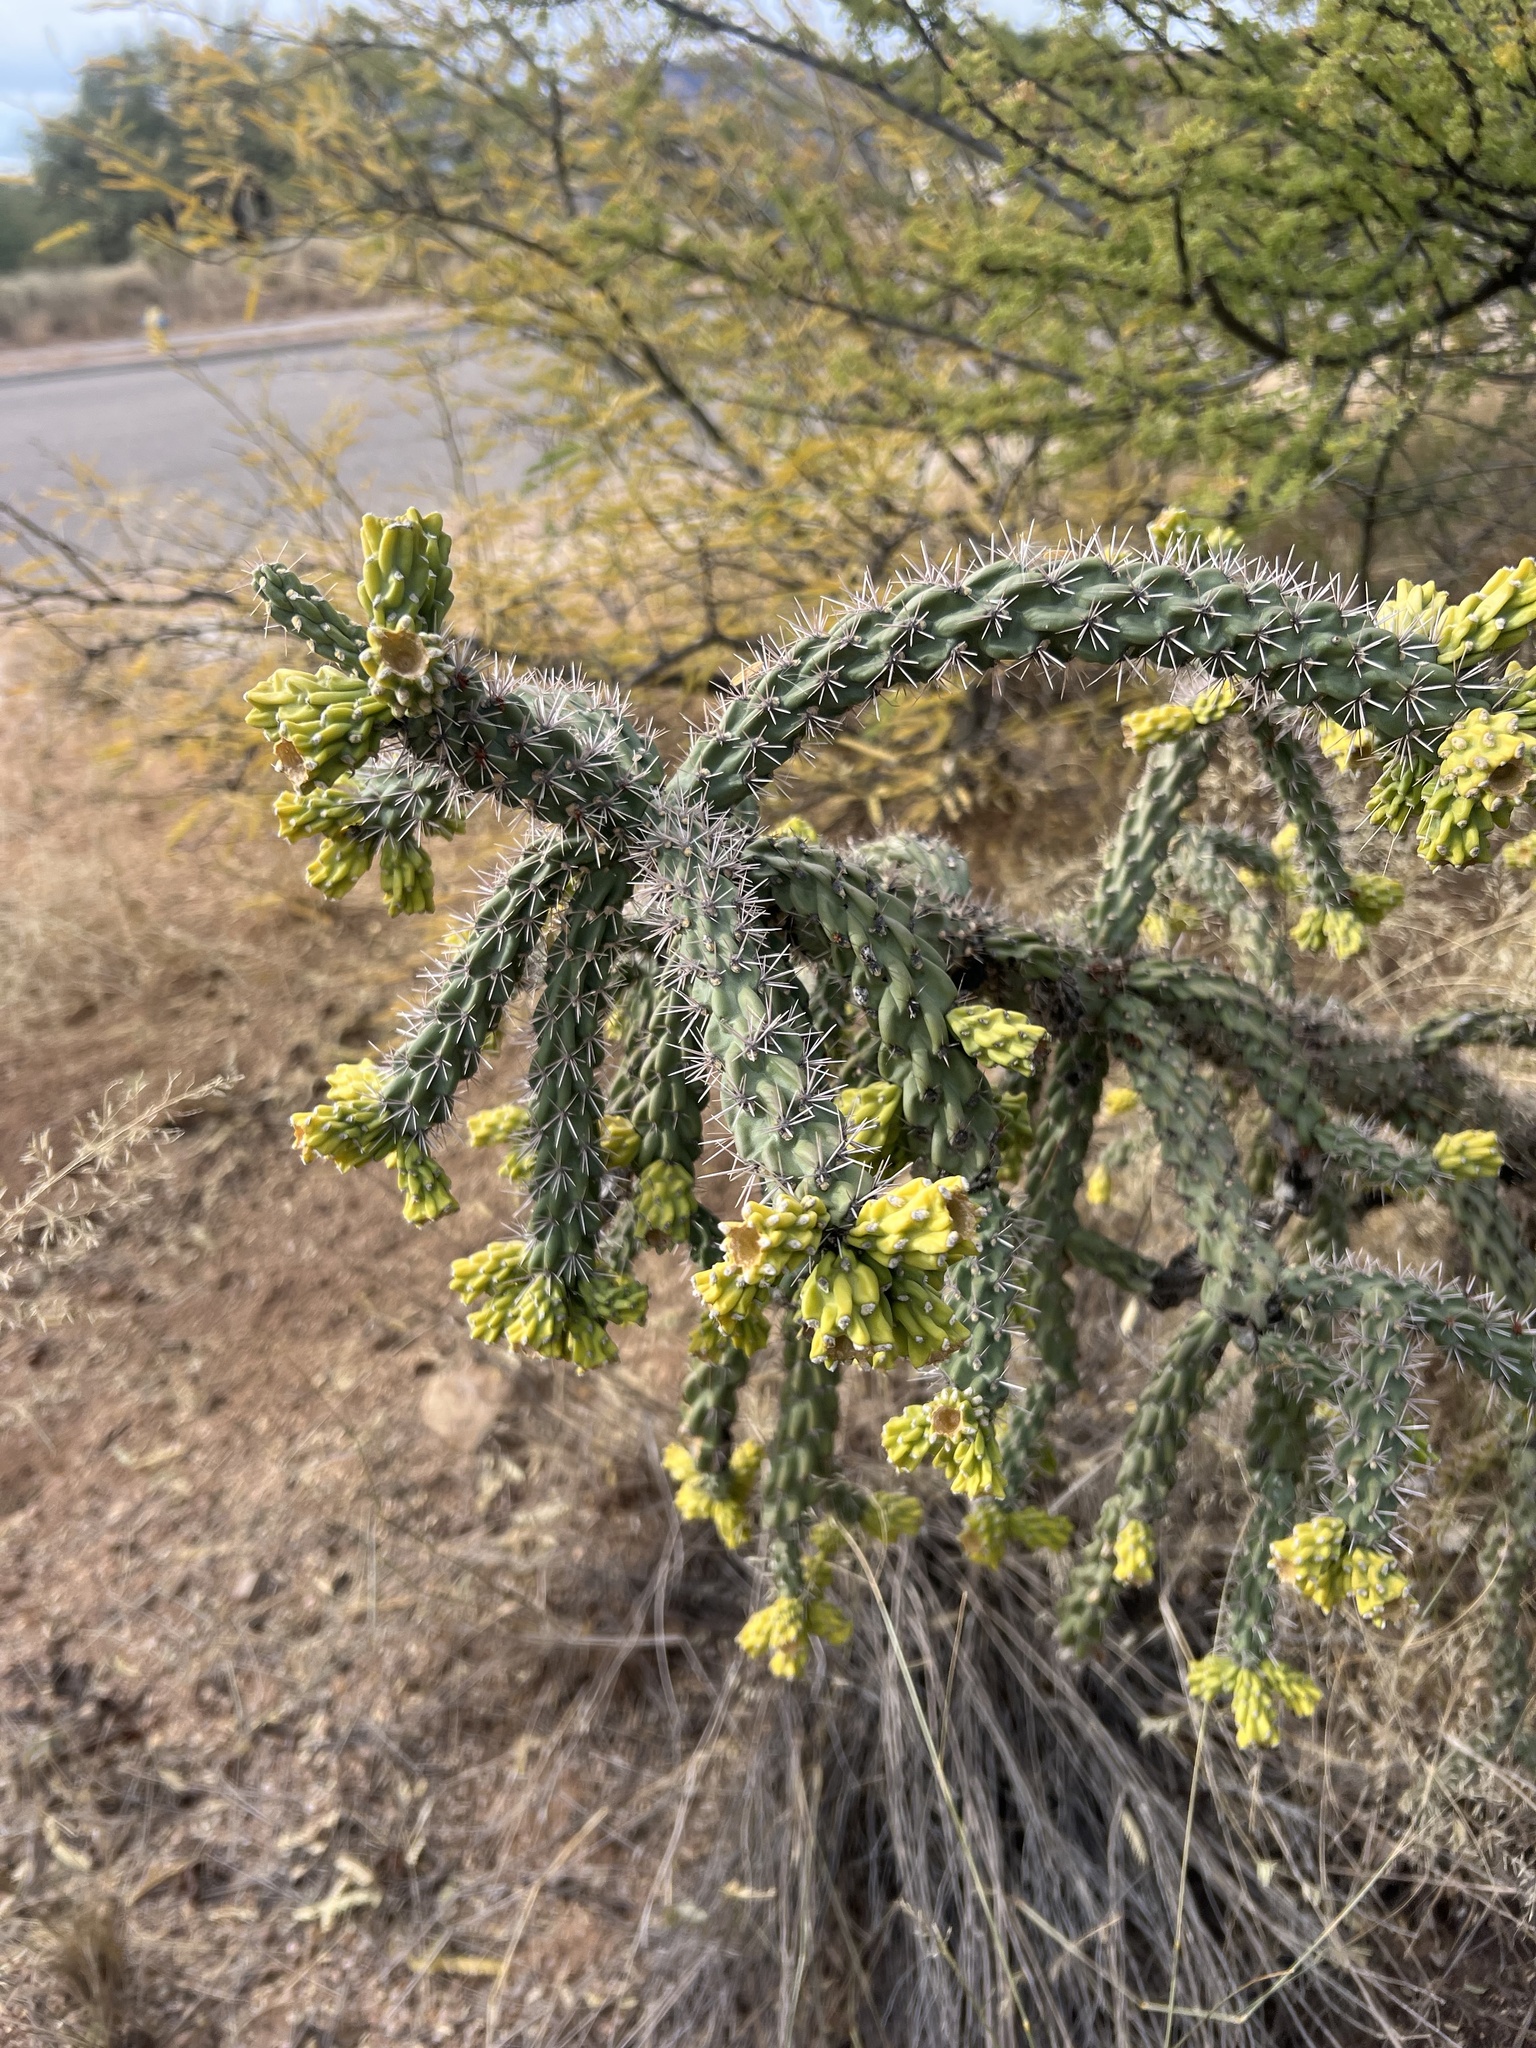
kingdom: Plantae
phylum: Tracheophyta
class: Magnoliopsida
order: Caryophyllales
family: Cactaceae
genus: Cylindropuntia
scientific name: Cylindropuntia imbricata
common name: Candelabrum cactus
